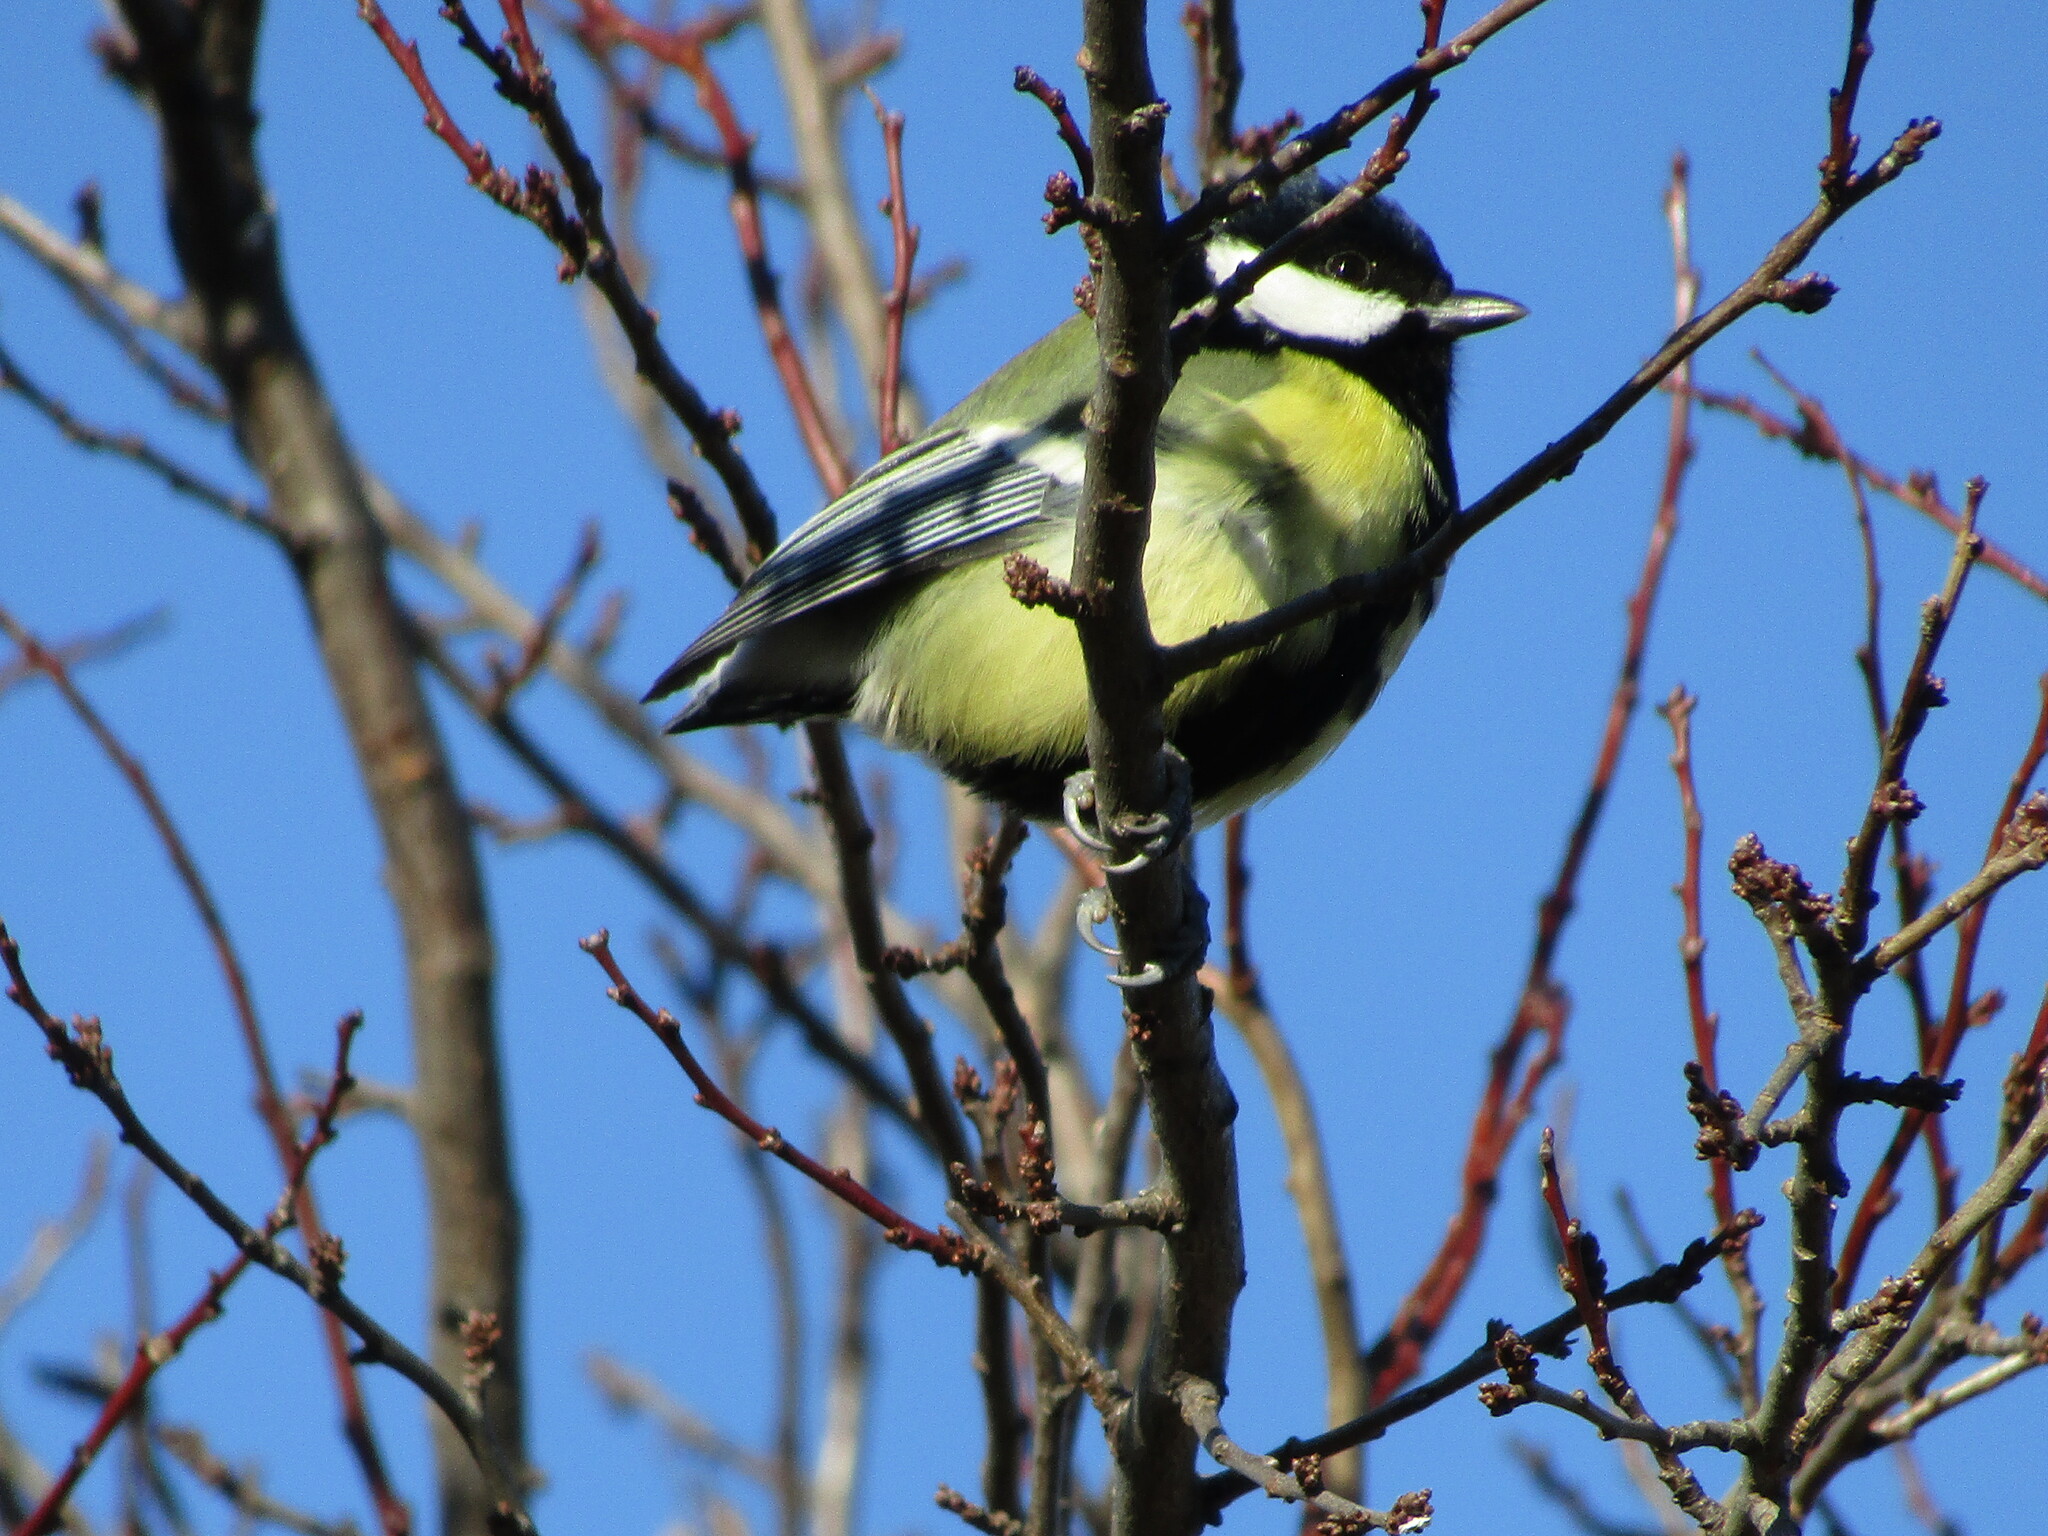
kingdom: Animalia
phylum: Chordata
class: Aves
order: Passeriformes
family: Paridae
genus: Parus
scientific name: Parus major
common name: Great tit
